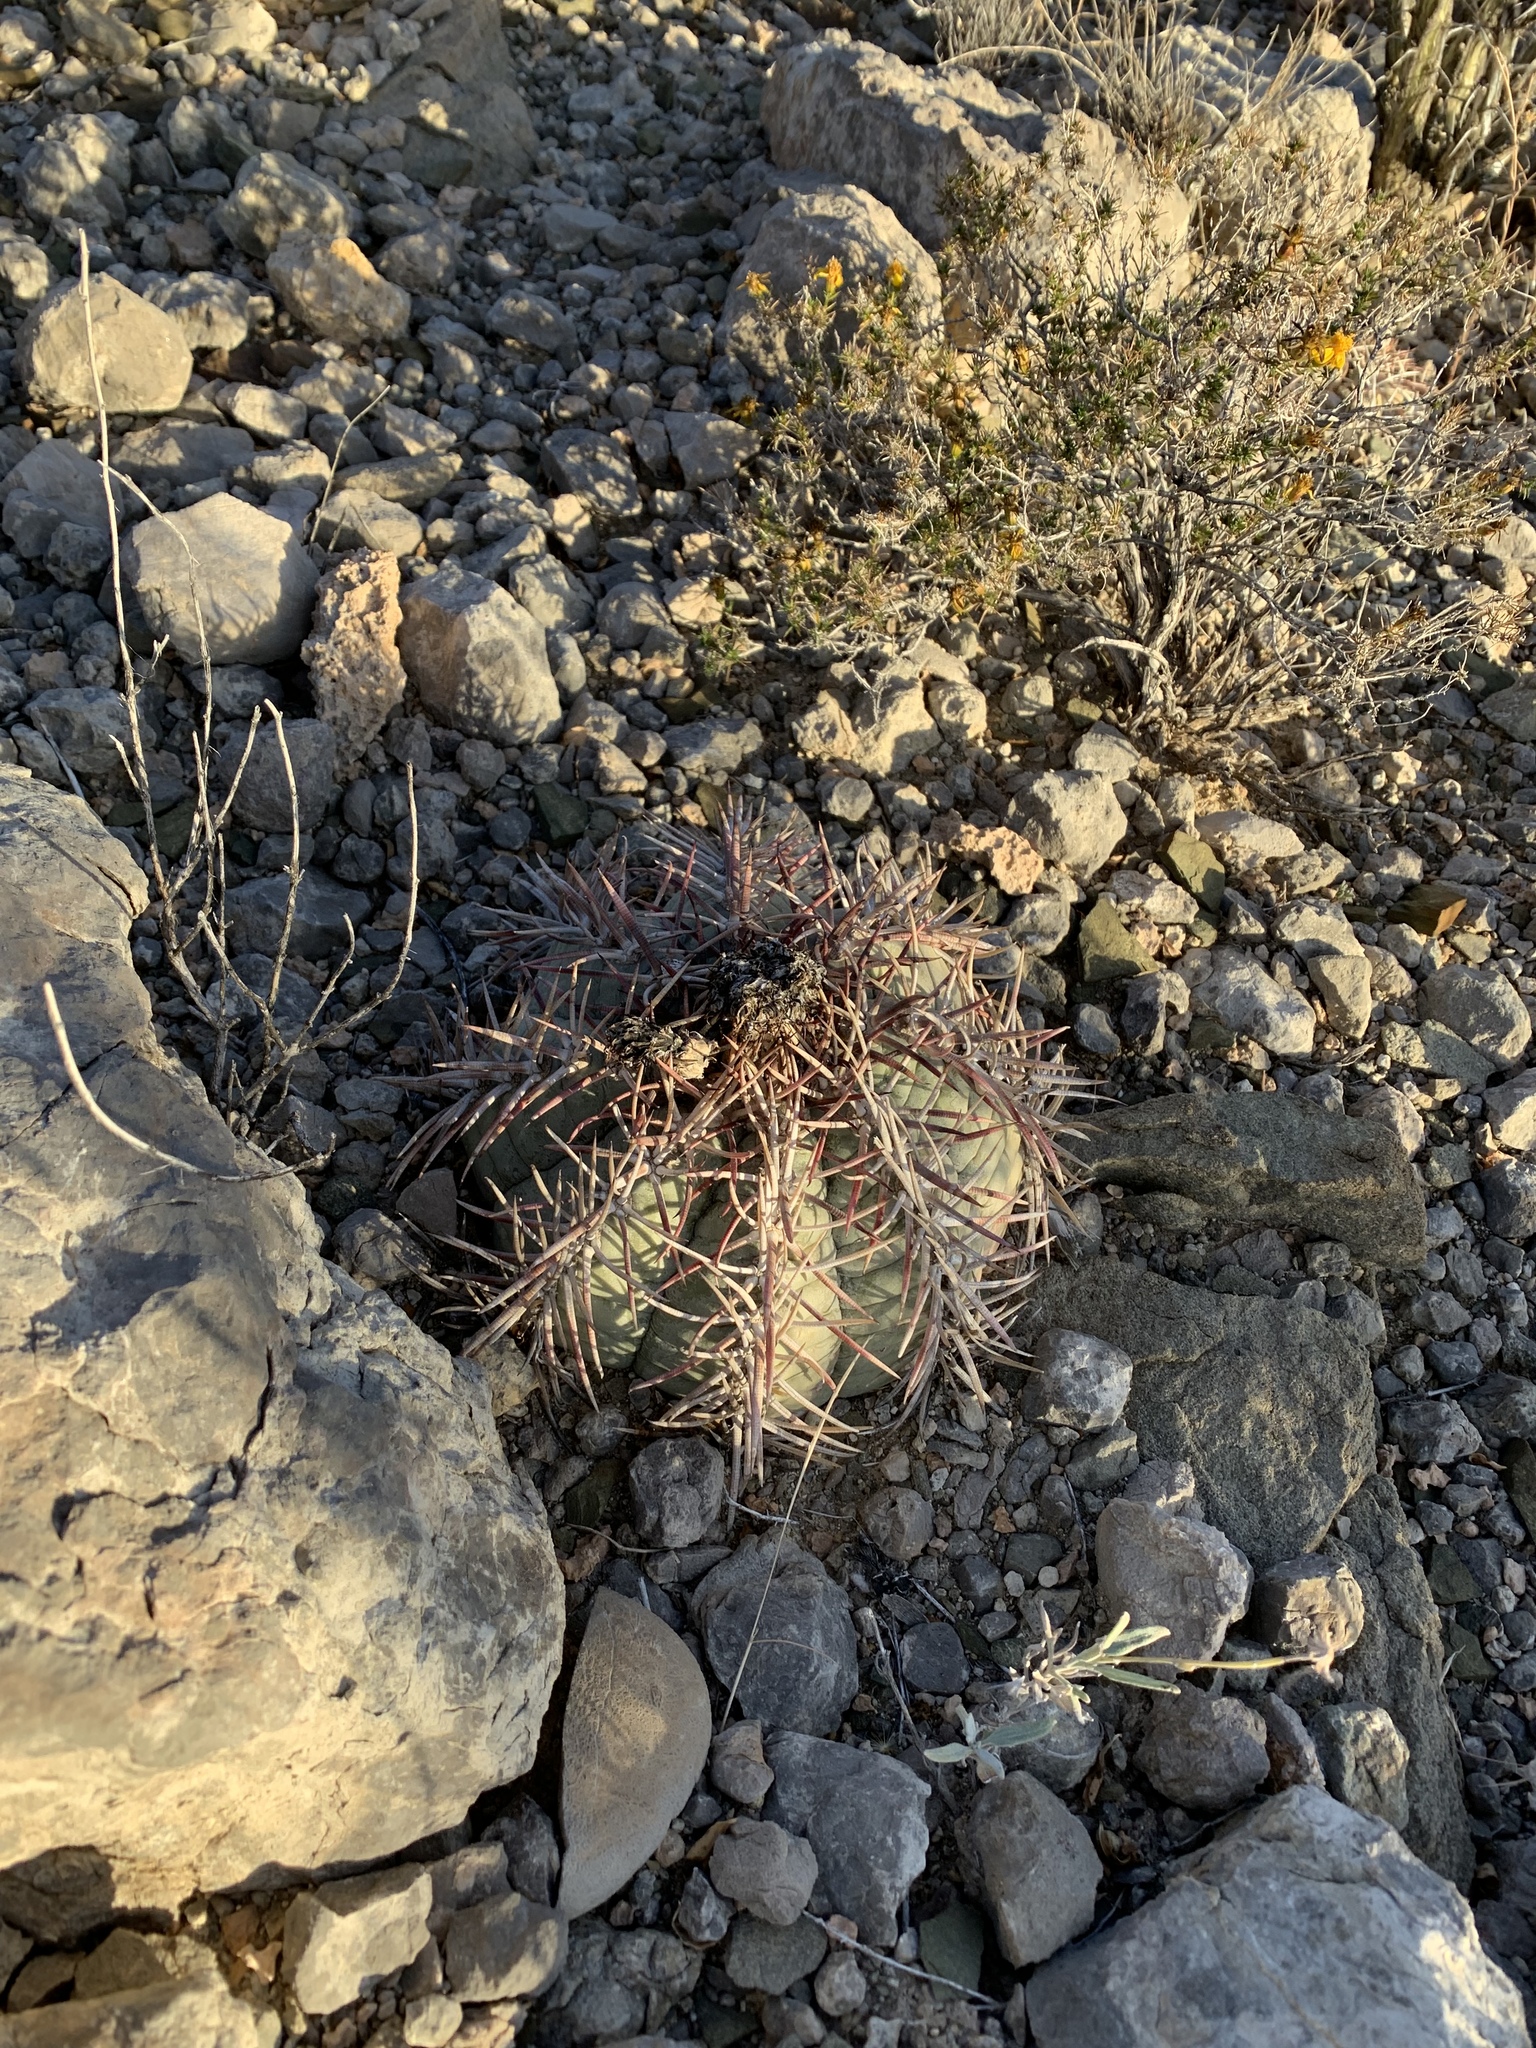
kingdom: Plantae
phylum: Tracheophyta
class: Magnoliopsida
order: Caryophyllales
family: Cactaceae
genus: Echinocactus
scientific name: Echinocactus horizonthalonius
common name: Devilshead
